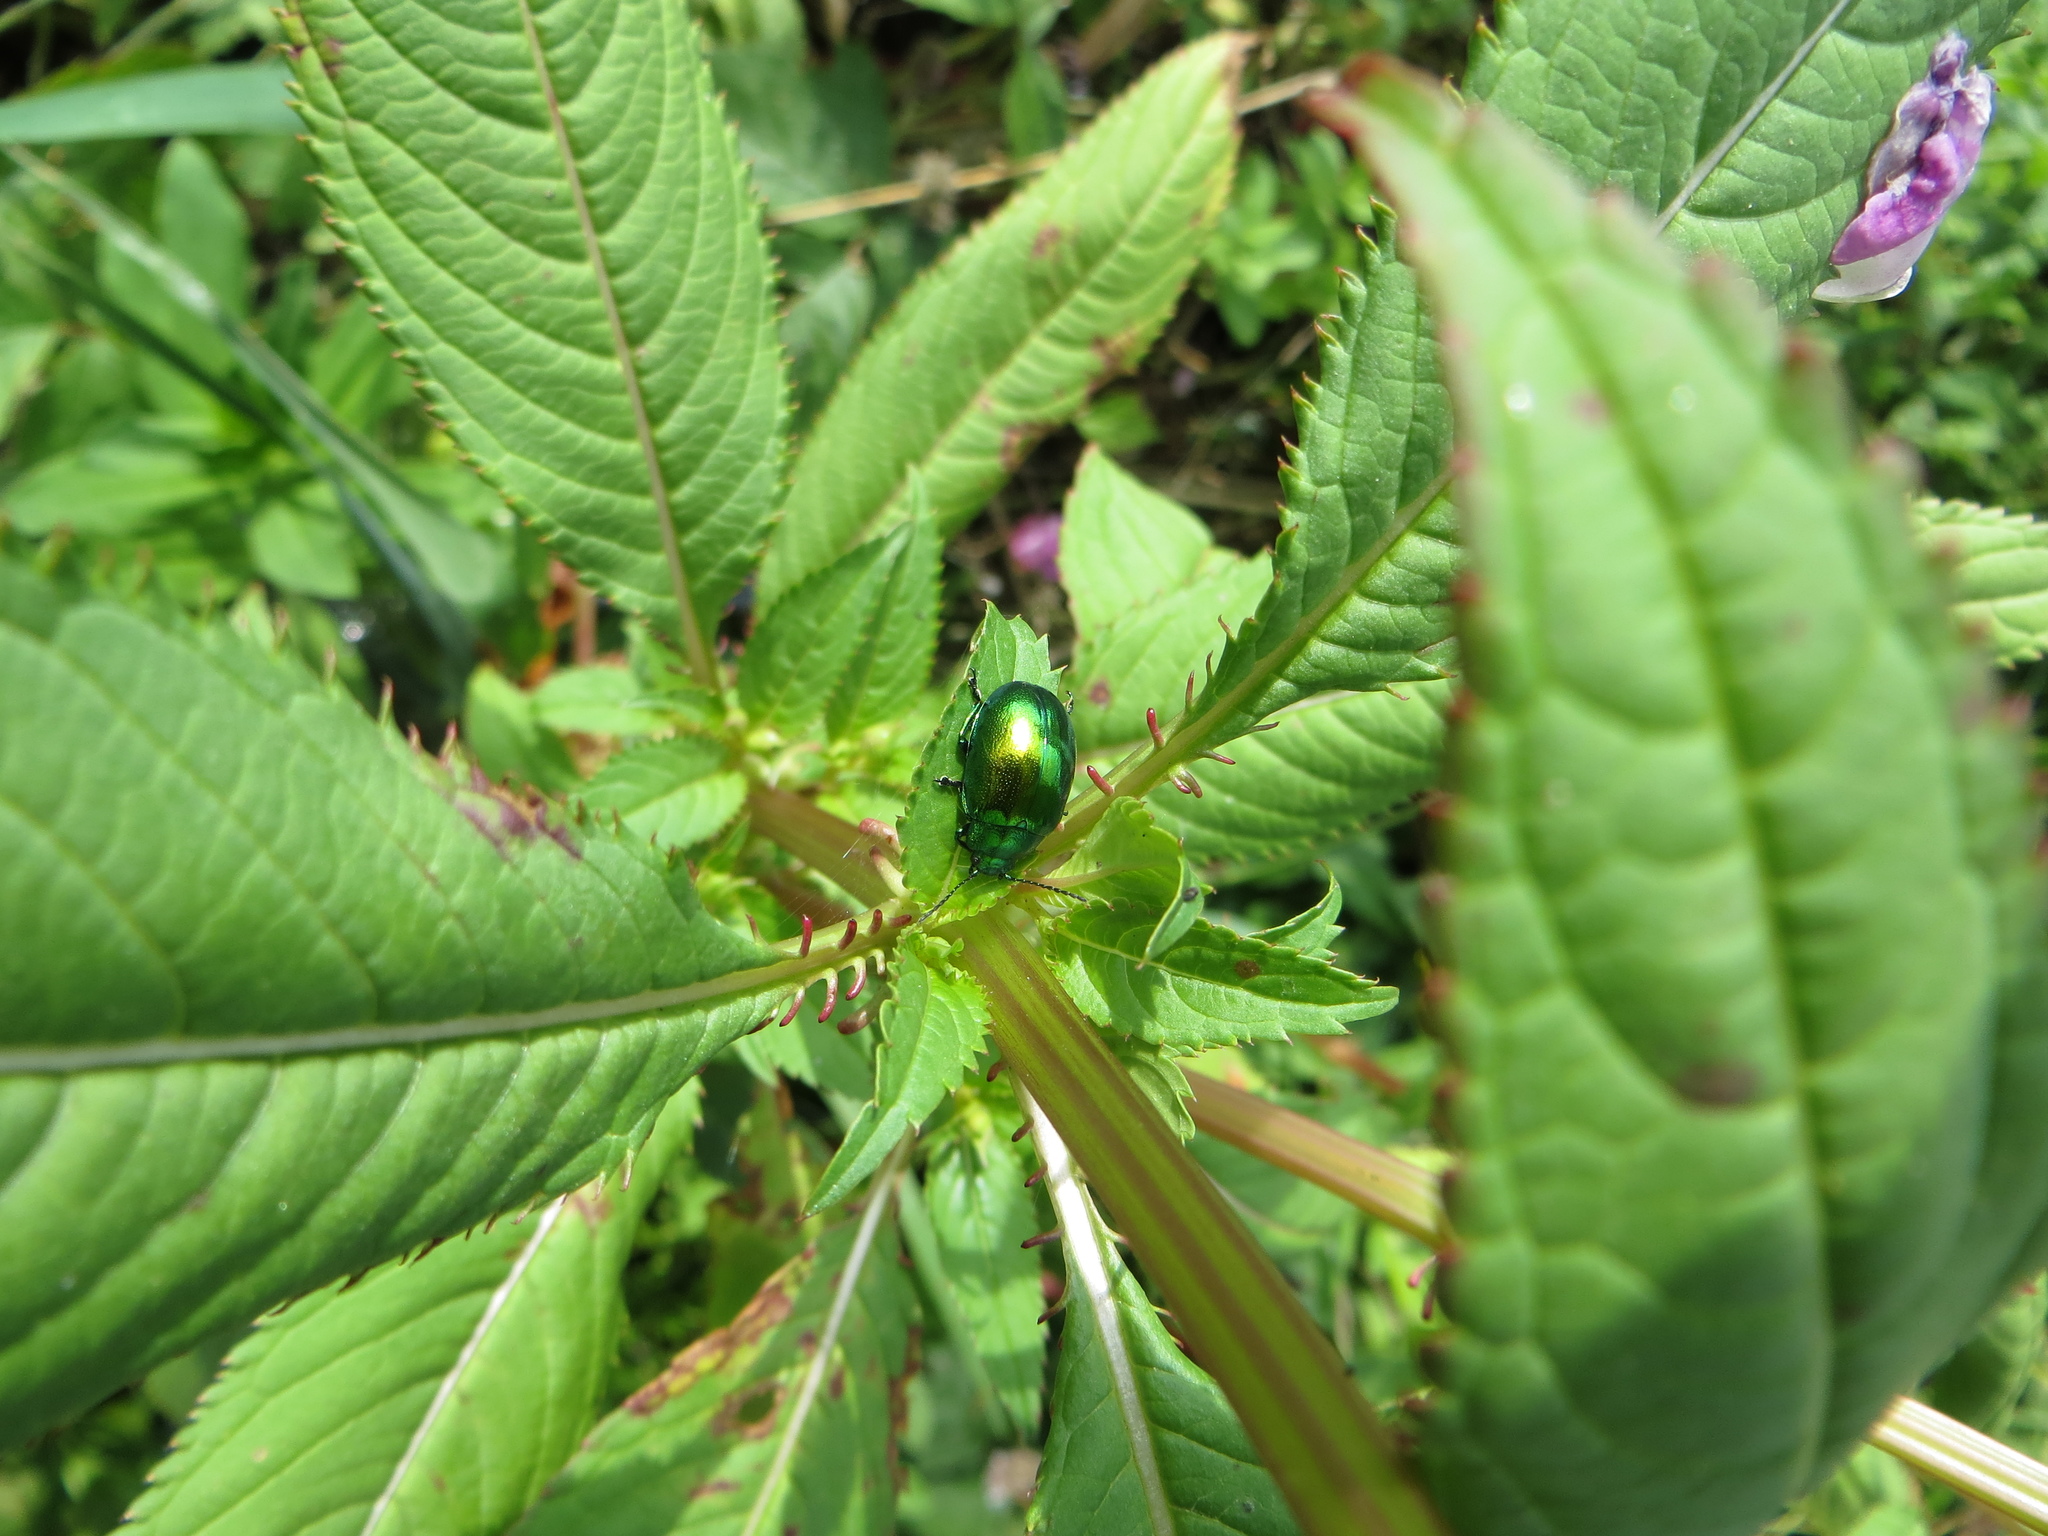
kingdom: Animalia
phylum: Arthropoda
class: Insecta
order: Coleoptera
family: Chrysomelidae
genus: Chrysolina
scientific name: Chrysolina herbacea
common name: Mint leaf beatle
